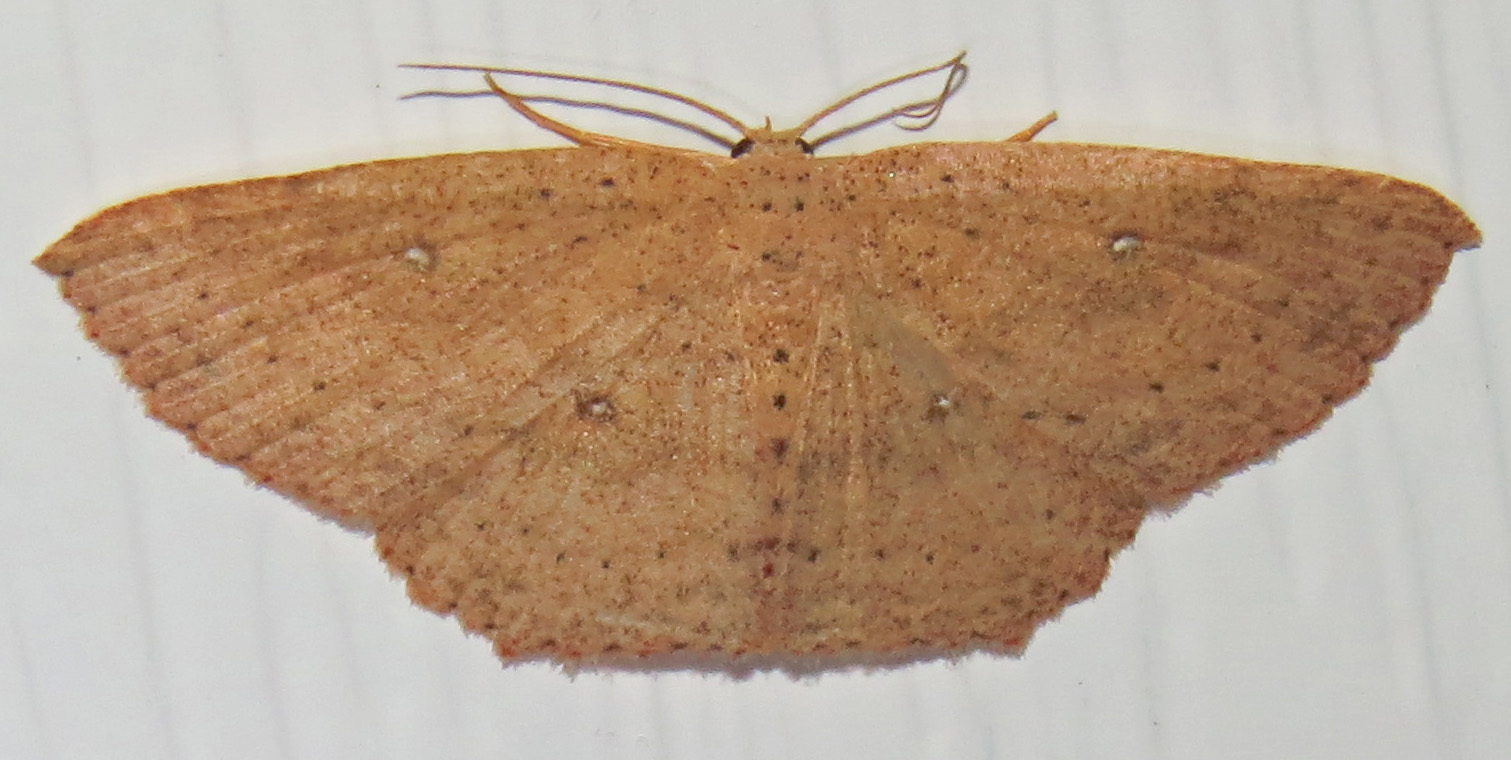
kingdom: Animalia
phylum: Arthropoda
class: Insecta
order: Lepidoptera
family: Geometridae
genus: Cyclophora
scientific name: Cyclophora myrtaria
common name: Waxmyrtle wave moth
